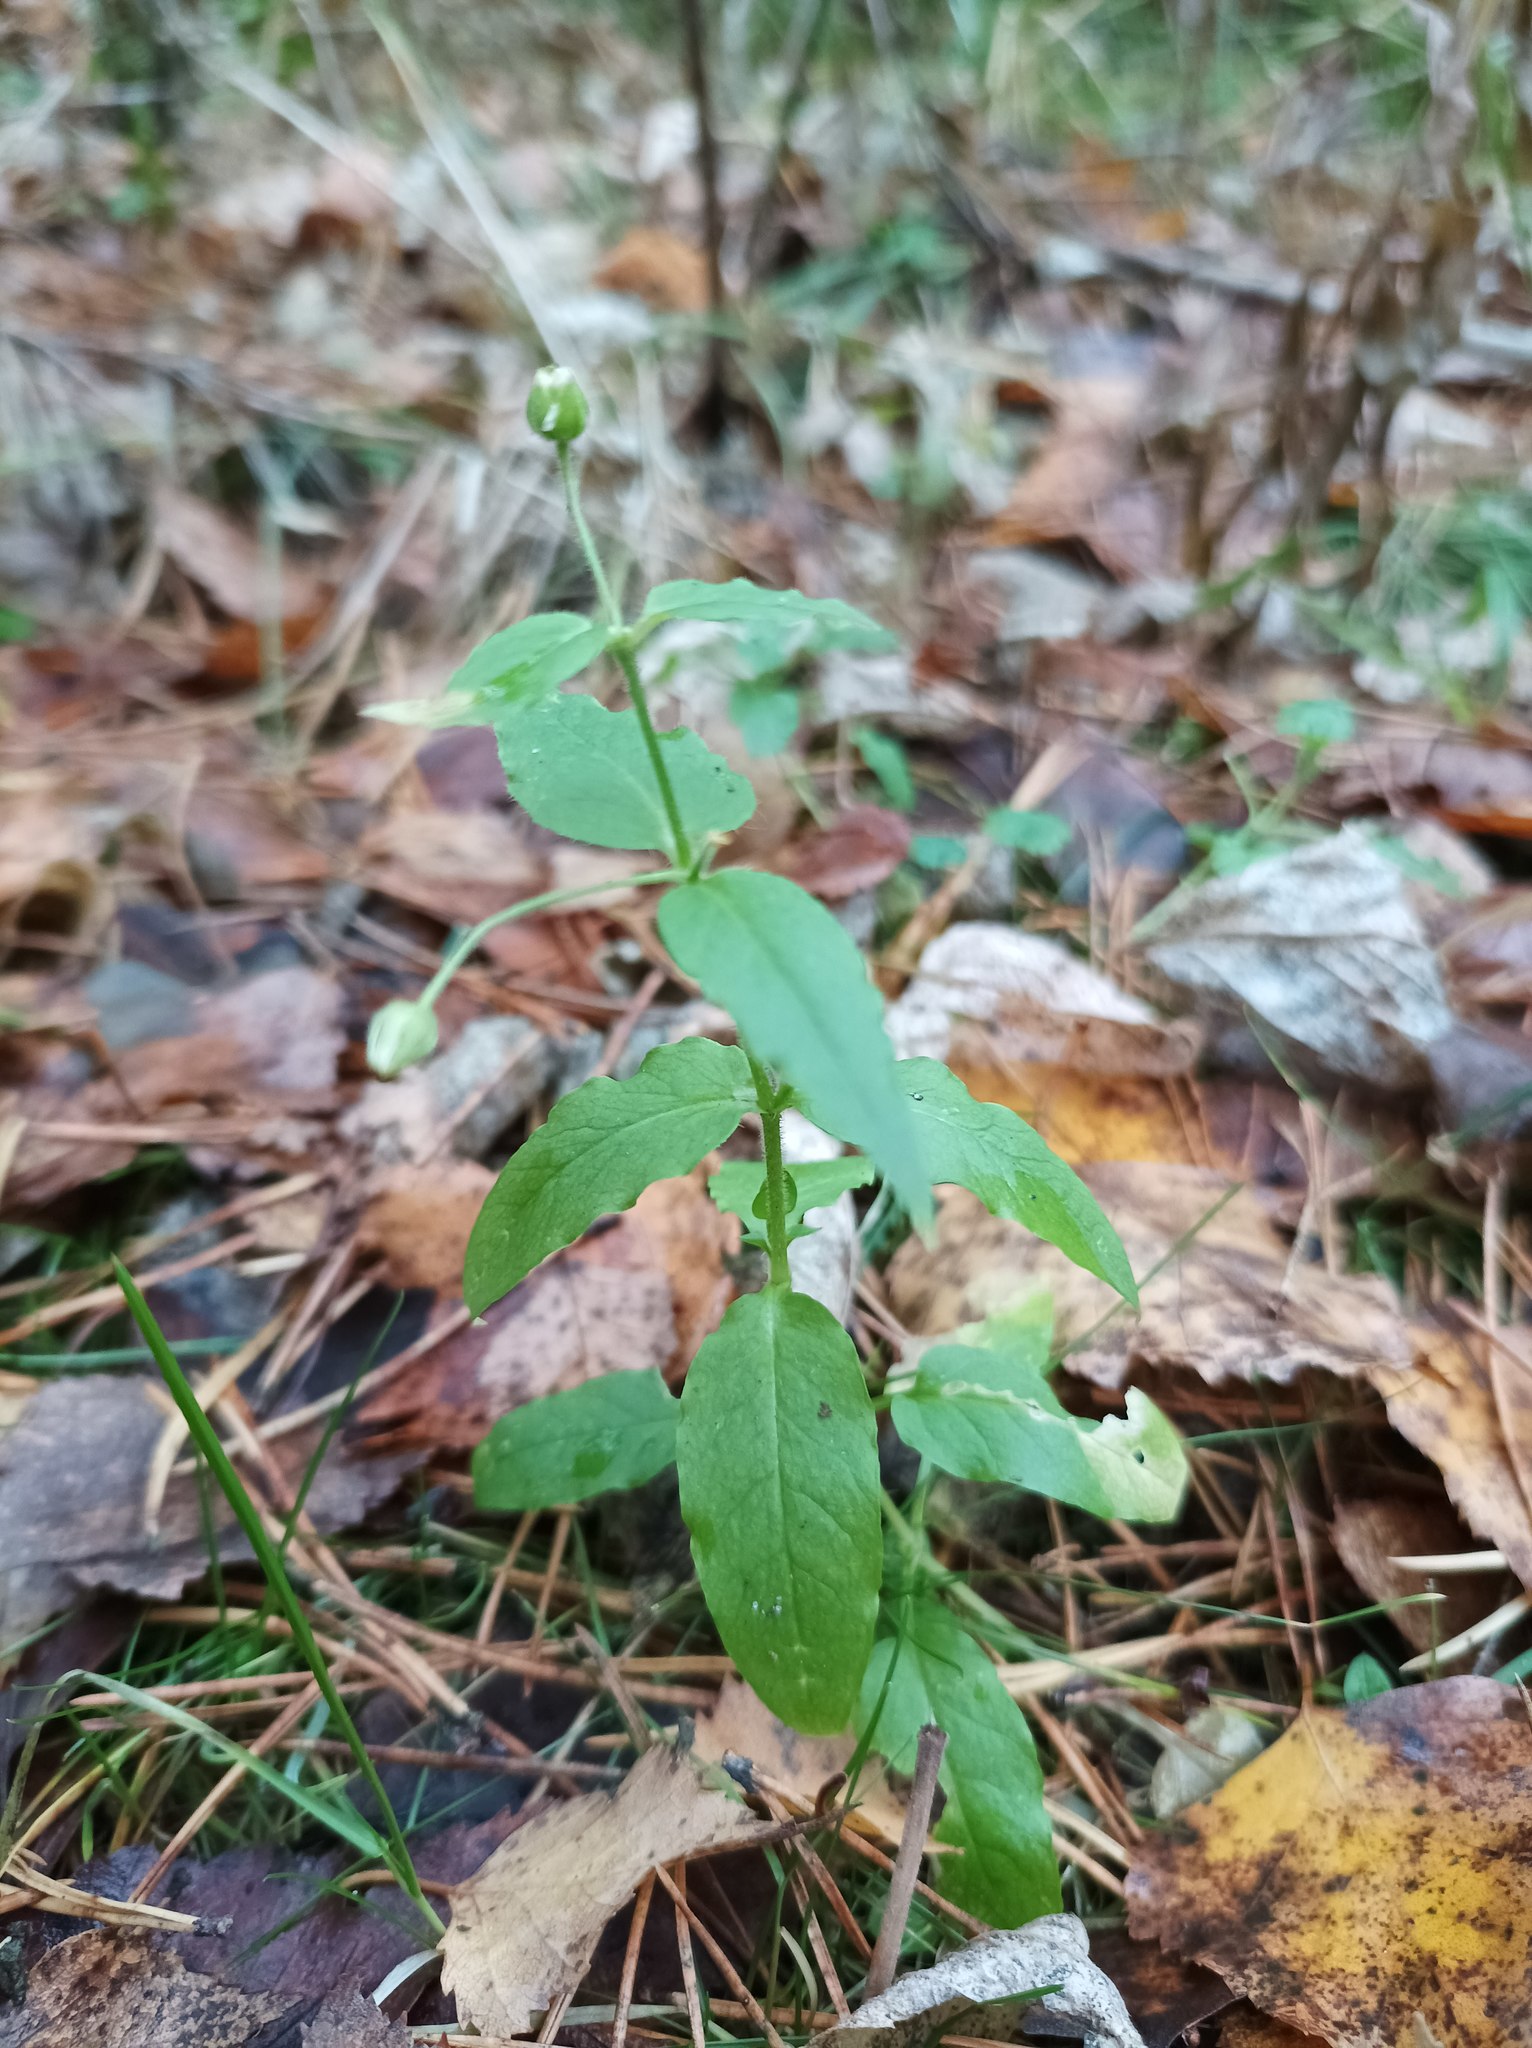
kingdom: Plantae
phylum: Tracheophyta
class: Magnoliopsida
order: Caryophyllales
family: Caryophyllaceae
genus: Stellaria
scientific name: Stellaria aquatica
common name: Water chickweed
